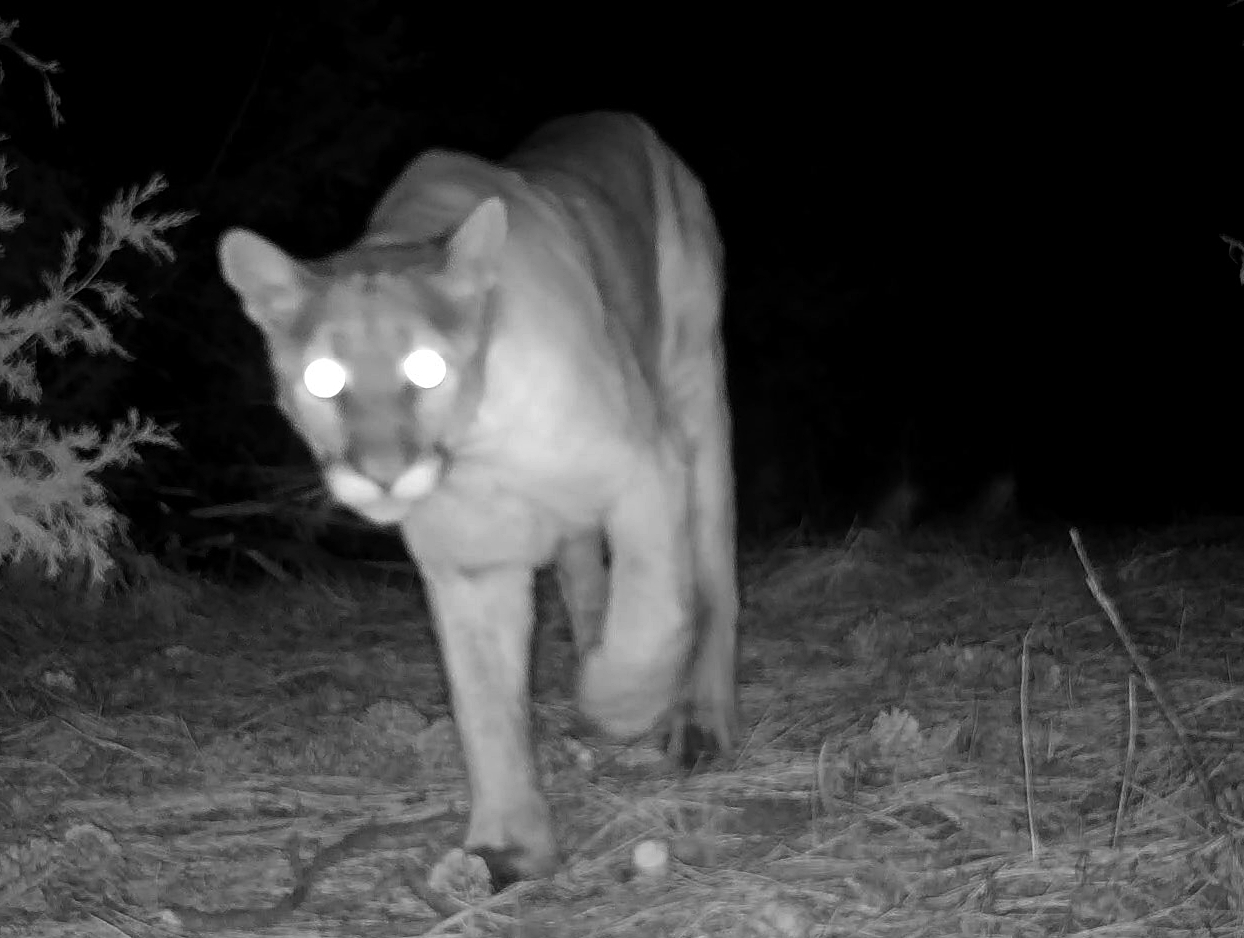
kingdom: Animalia
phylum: Chordata
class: Mammalia
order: Carnivora
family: Felidae
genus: Puma
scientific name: Puma concolor
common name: Puma
